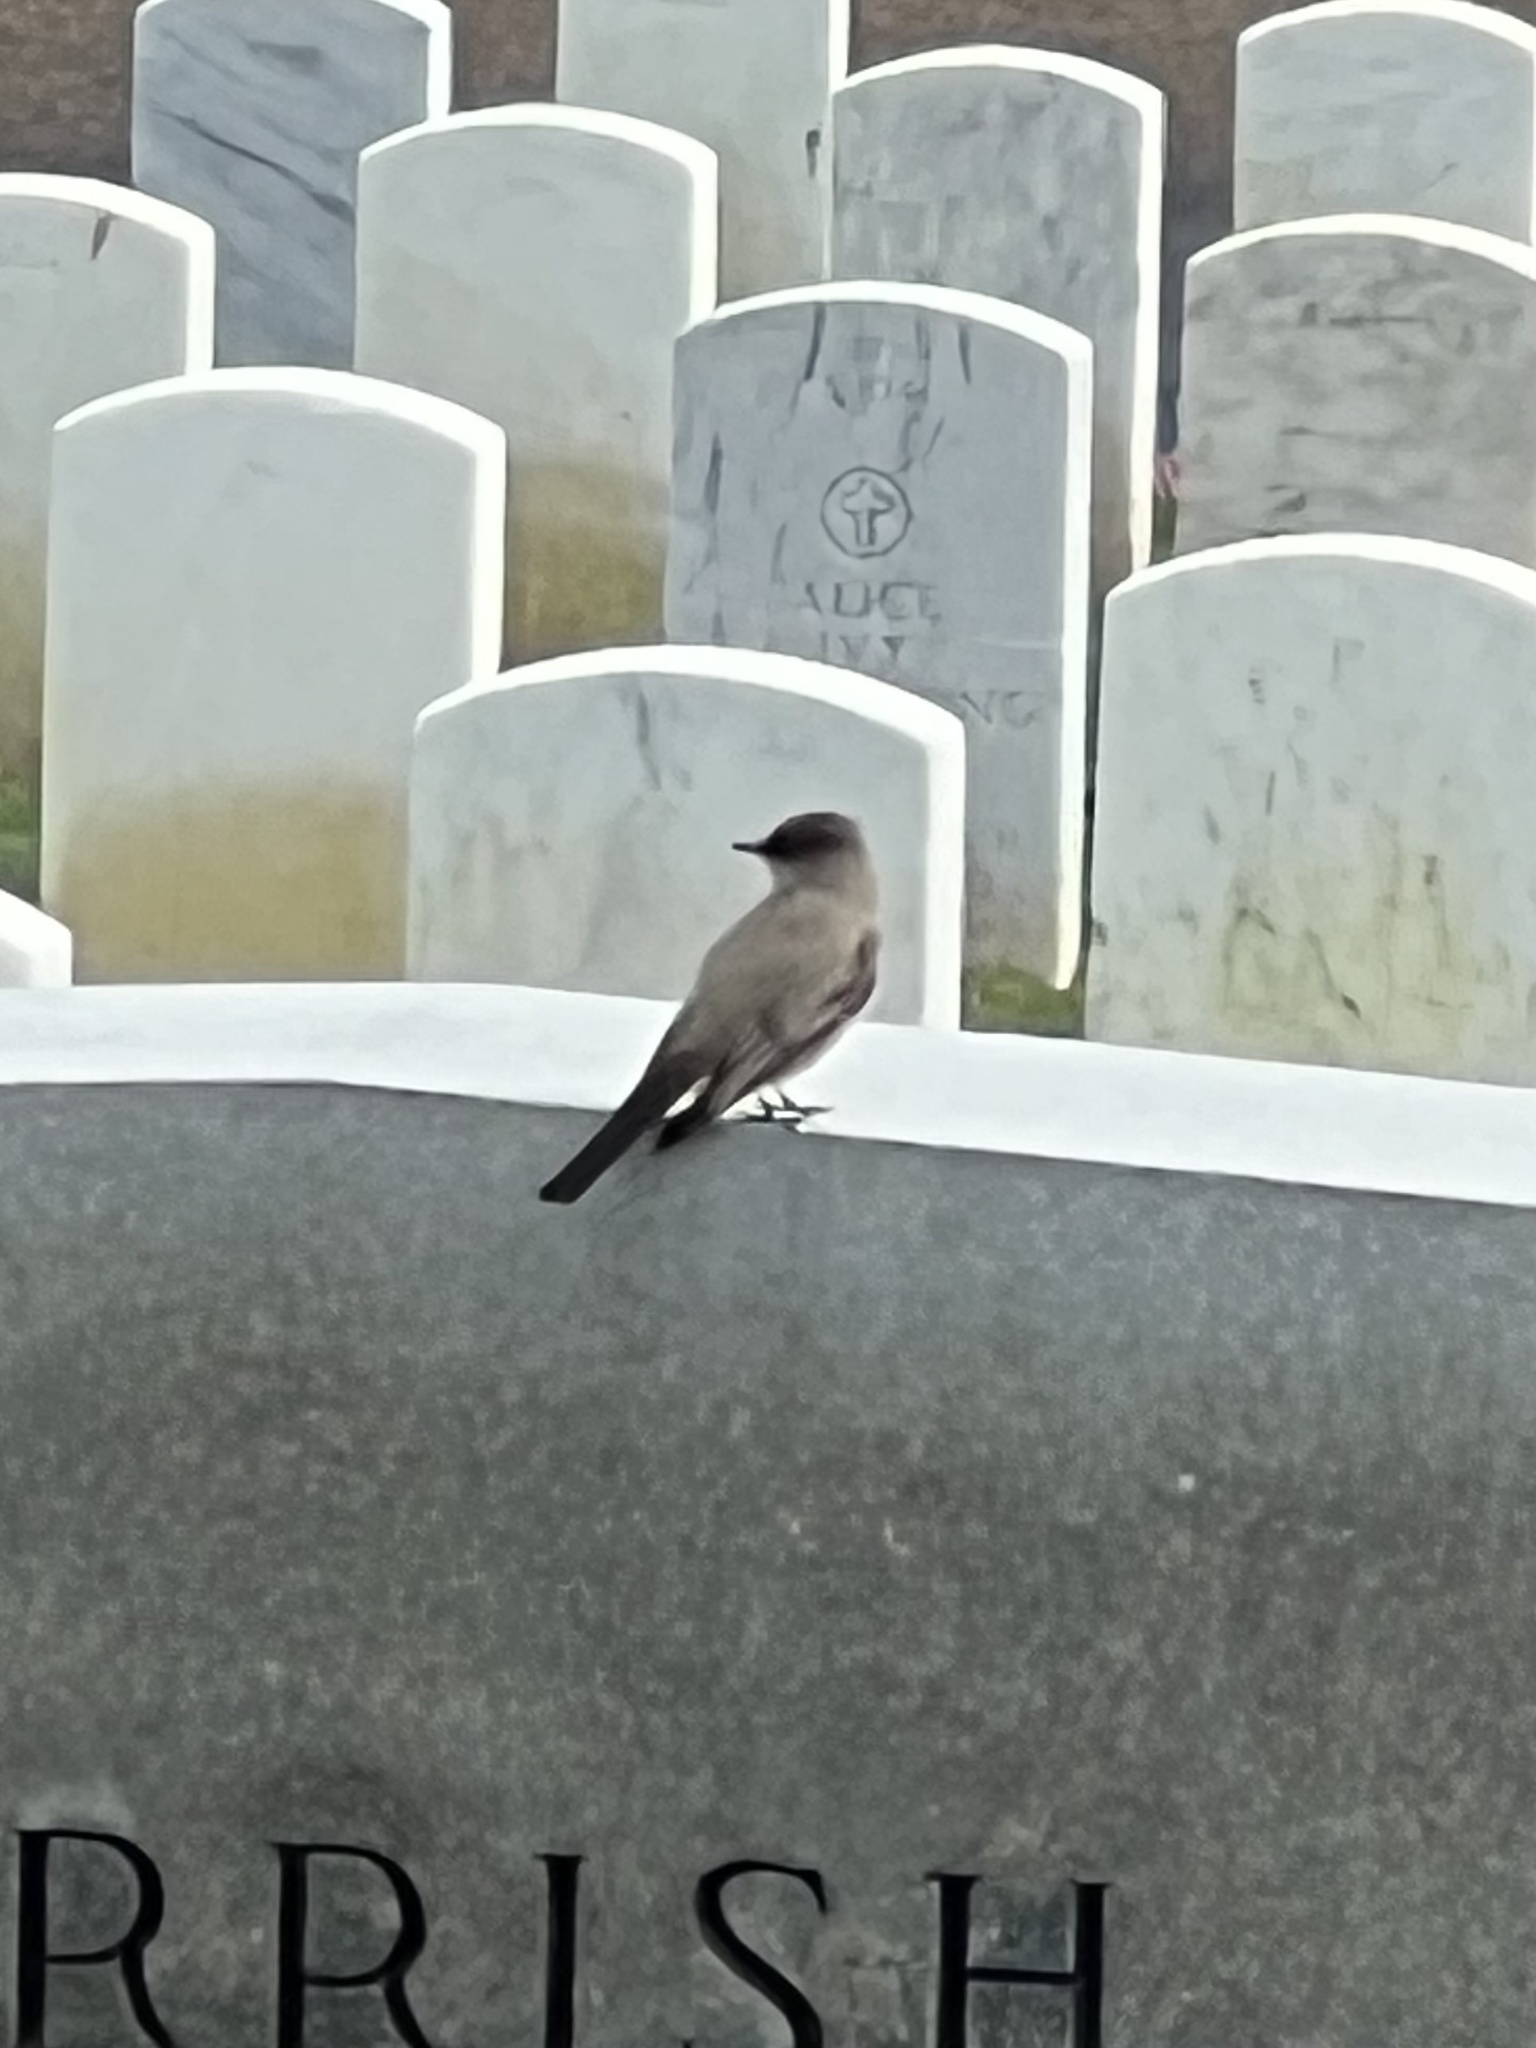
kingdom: Animalia
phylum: Chordata
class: Aves
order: Passeriformes
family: Tyrannidae
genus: Sayornis
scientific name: Sayornis saya
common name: Say's phoebe
